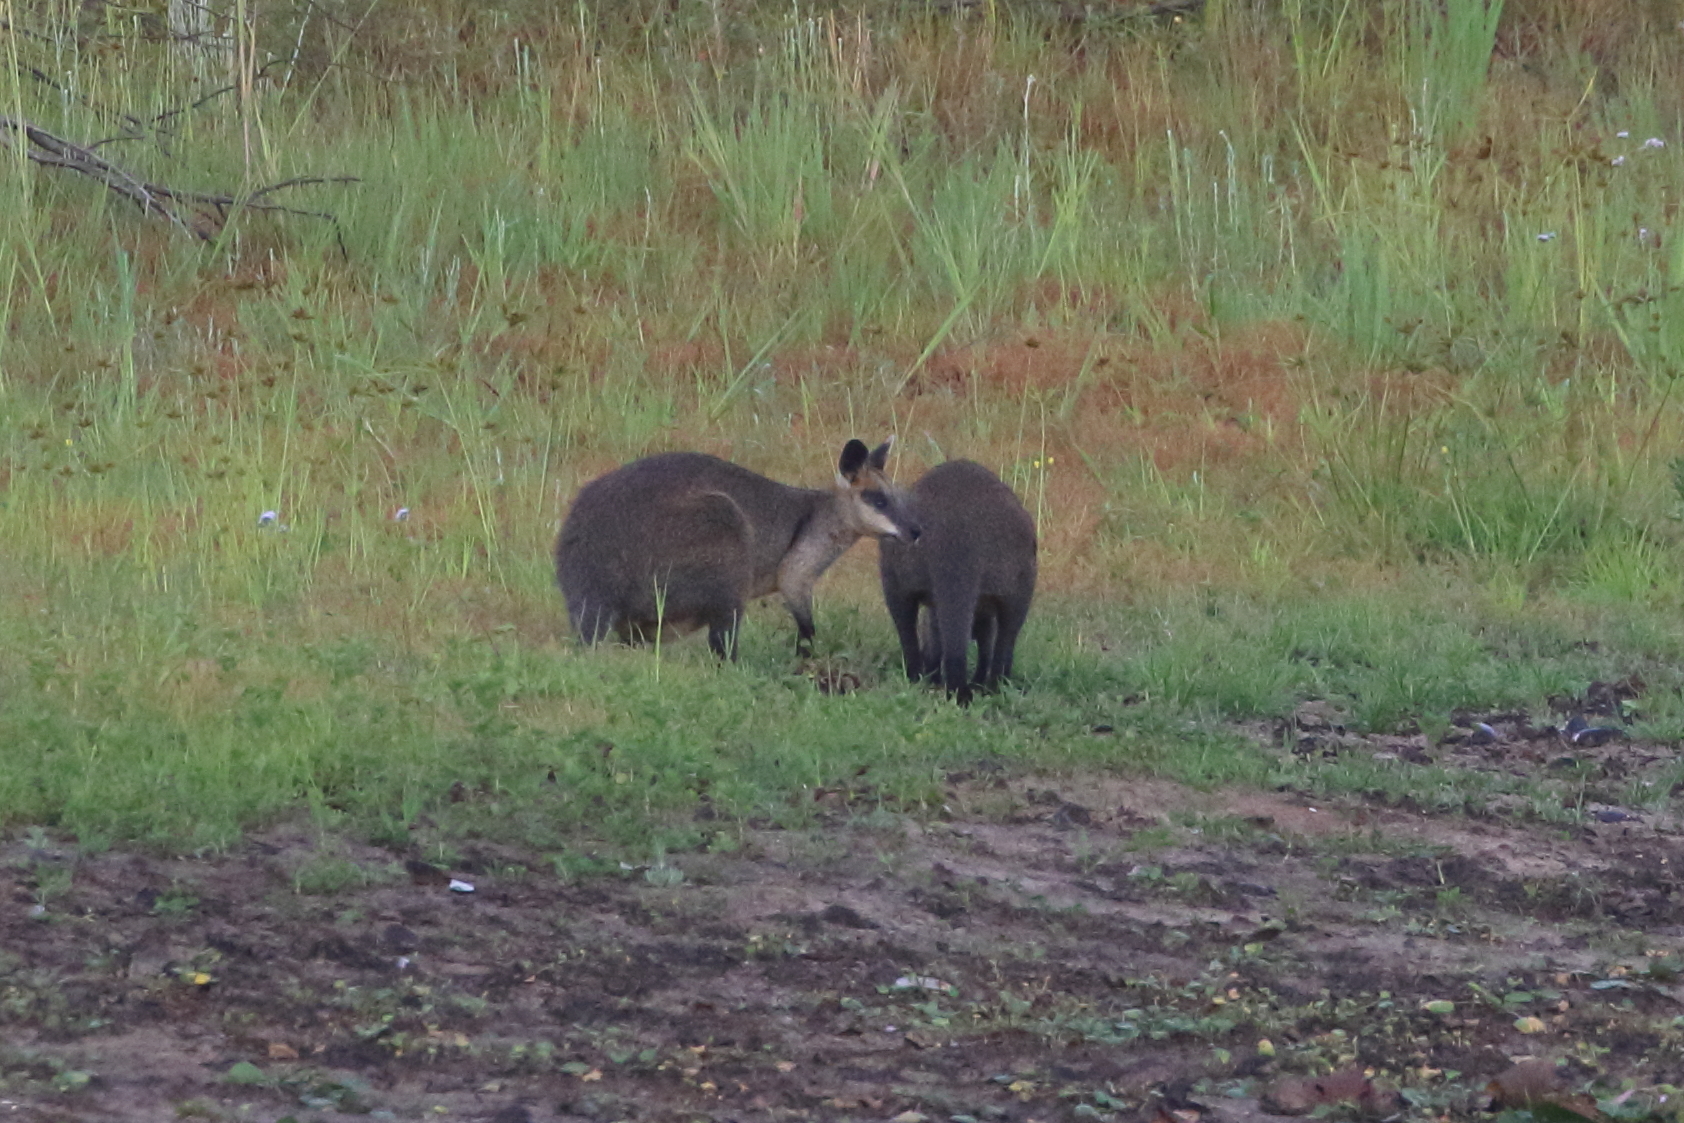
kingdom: Animalia
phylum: Chordata
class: Mammalia
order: Diprotodontia
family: Macropodidae
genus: Wallabia
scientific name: Wallabia bicolor
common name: Swamp wallaby
